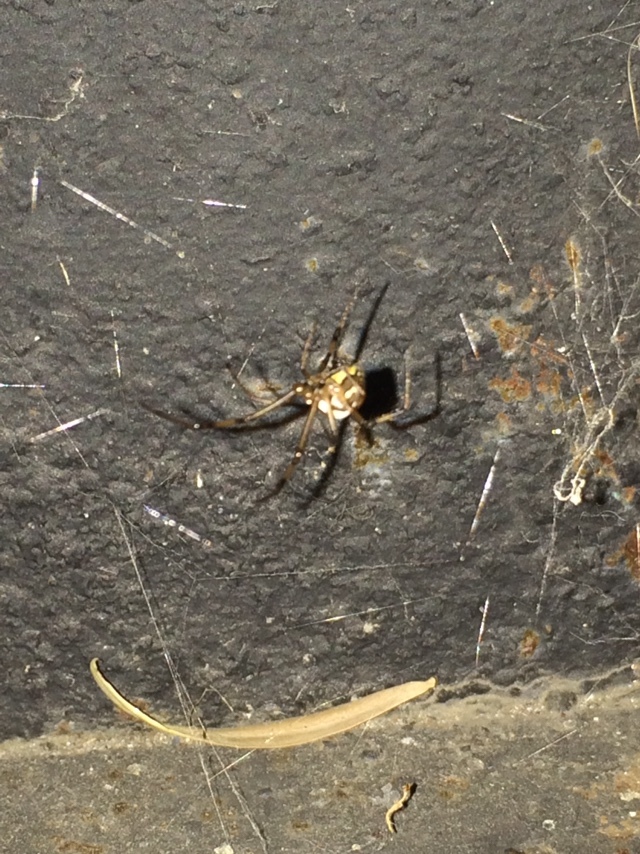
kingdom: Animalia
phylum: Arthropoda
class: Arachnida
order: Araneae
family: Theridiidae
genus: Latrodectus
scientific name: Latrodectus hesperus
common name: Western black widow
